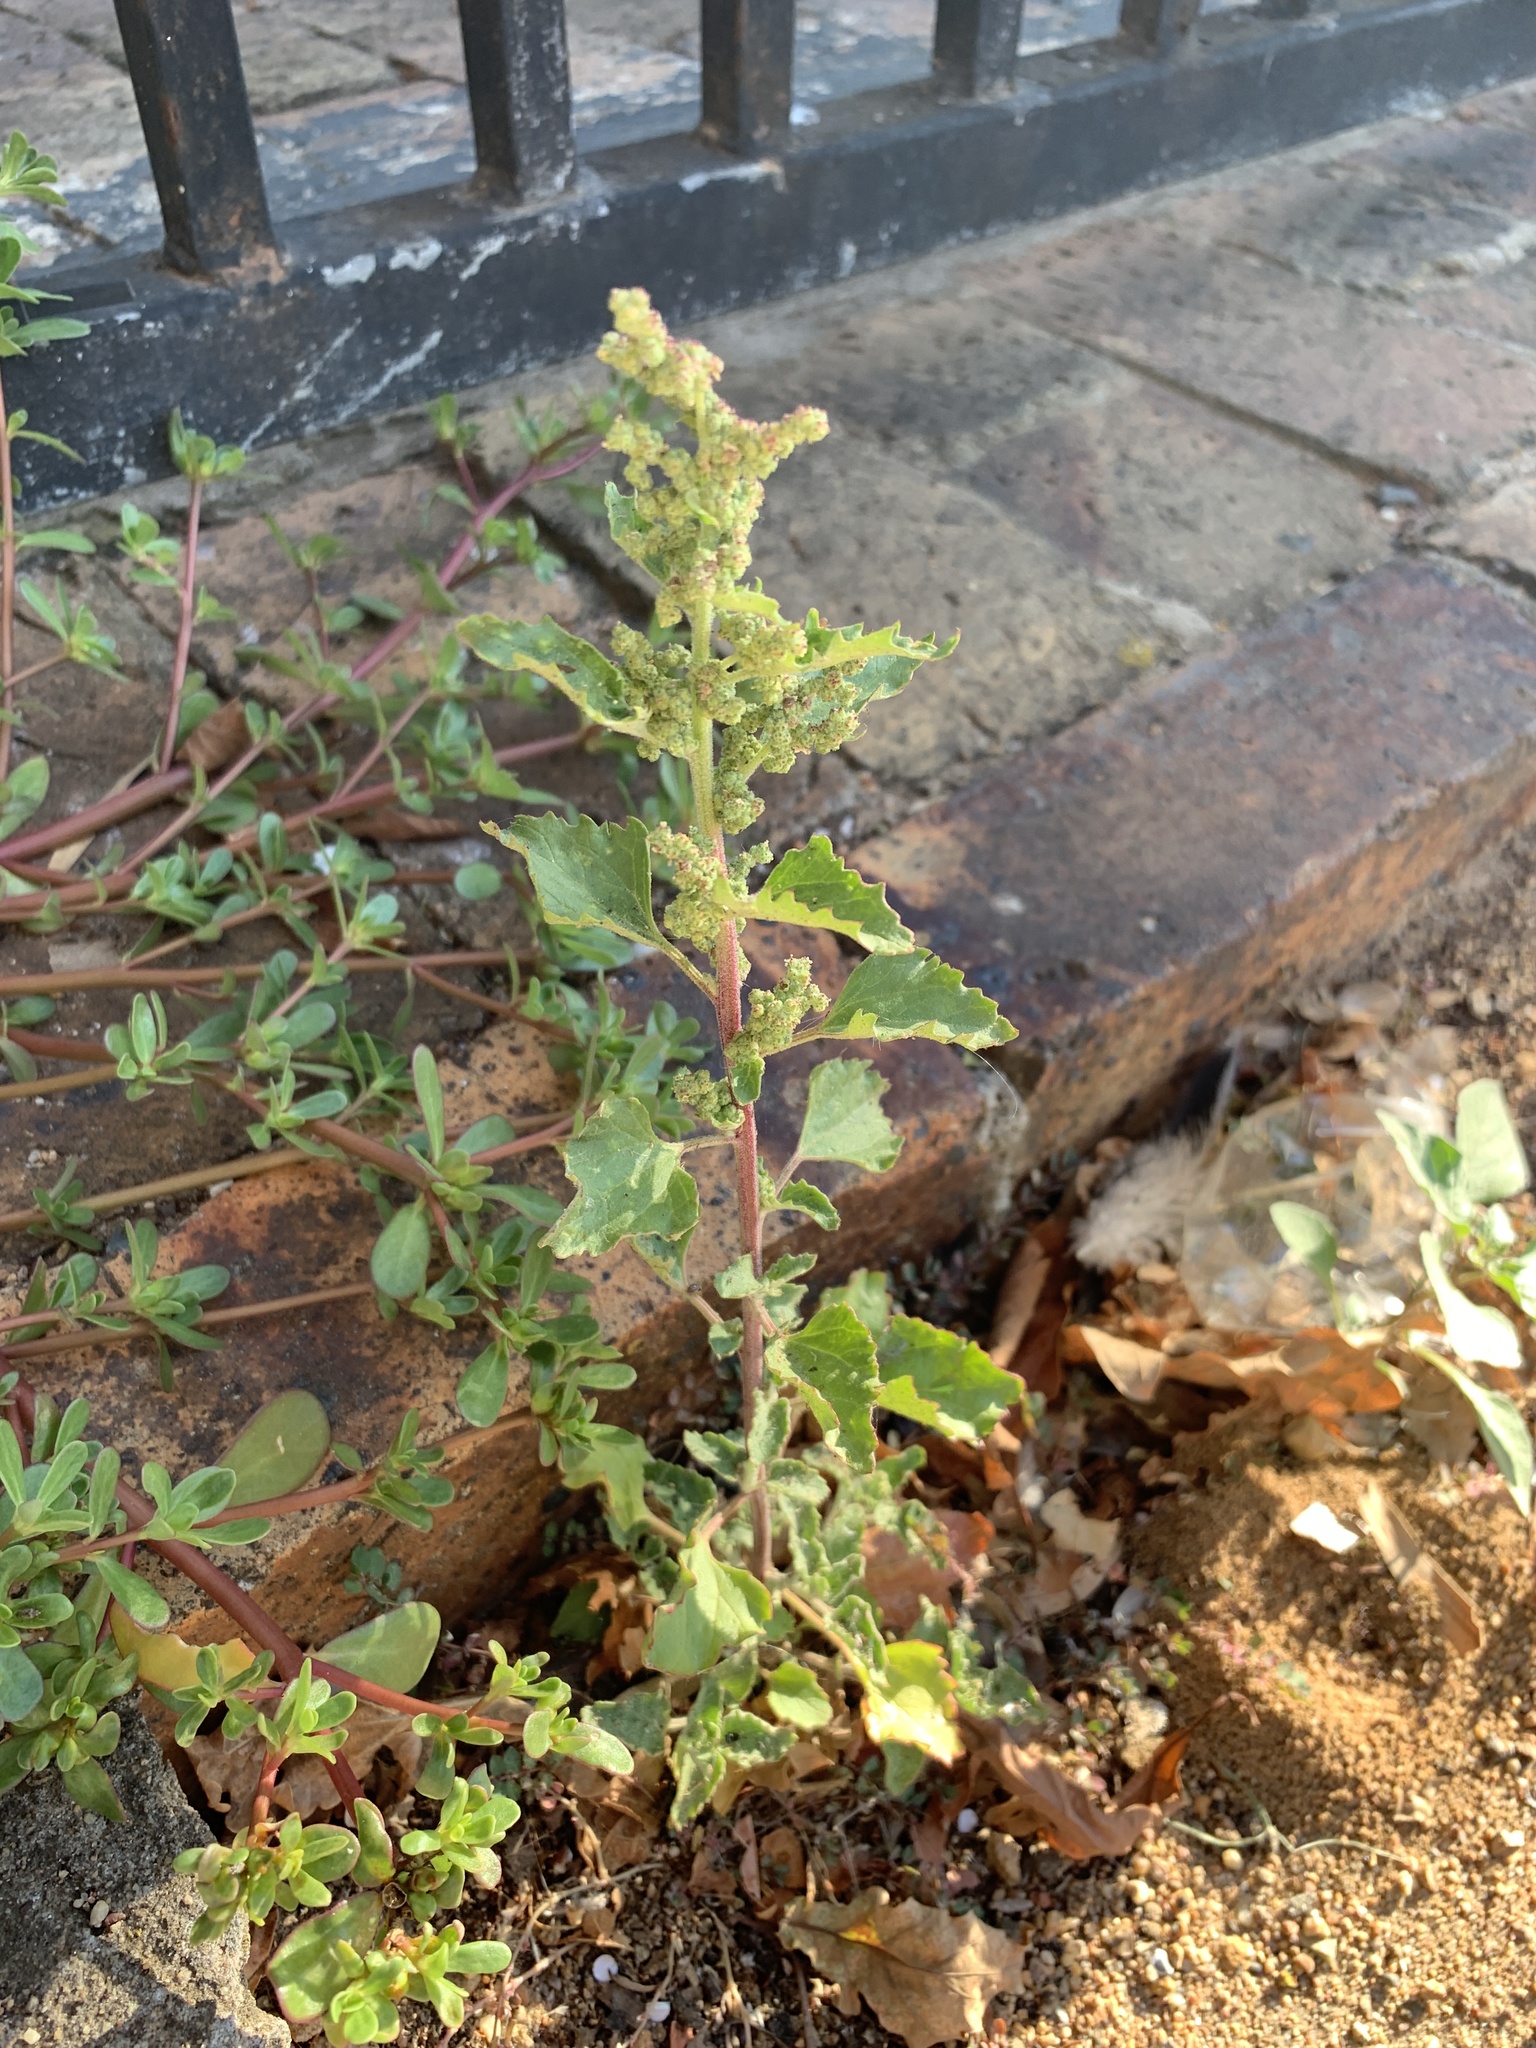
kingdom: Plantae
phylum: Tracheophyta
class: Magnoliopsida
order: Caryophyllales
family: Amaranthaceae
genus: Chenopodiastrum
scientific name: Chenopodiastrum murale
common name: Sowbane
